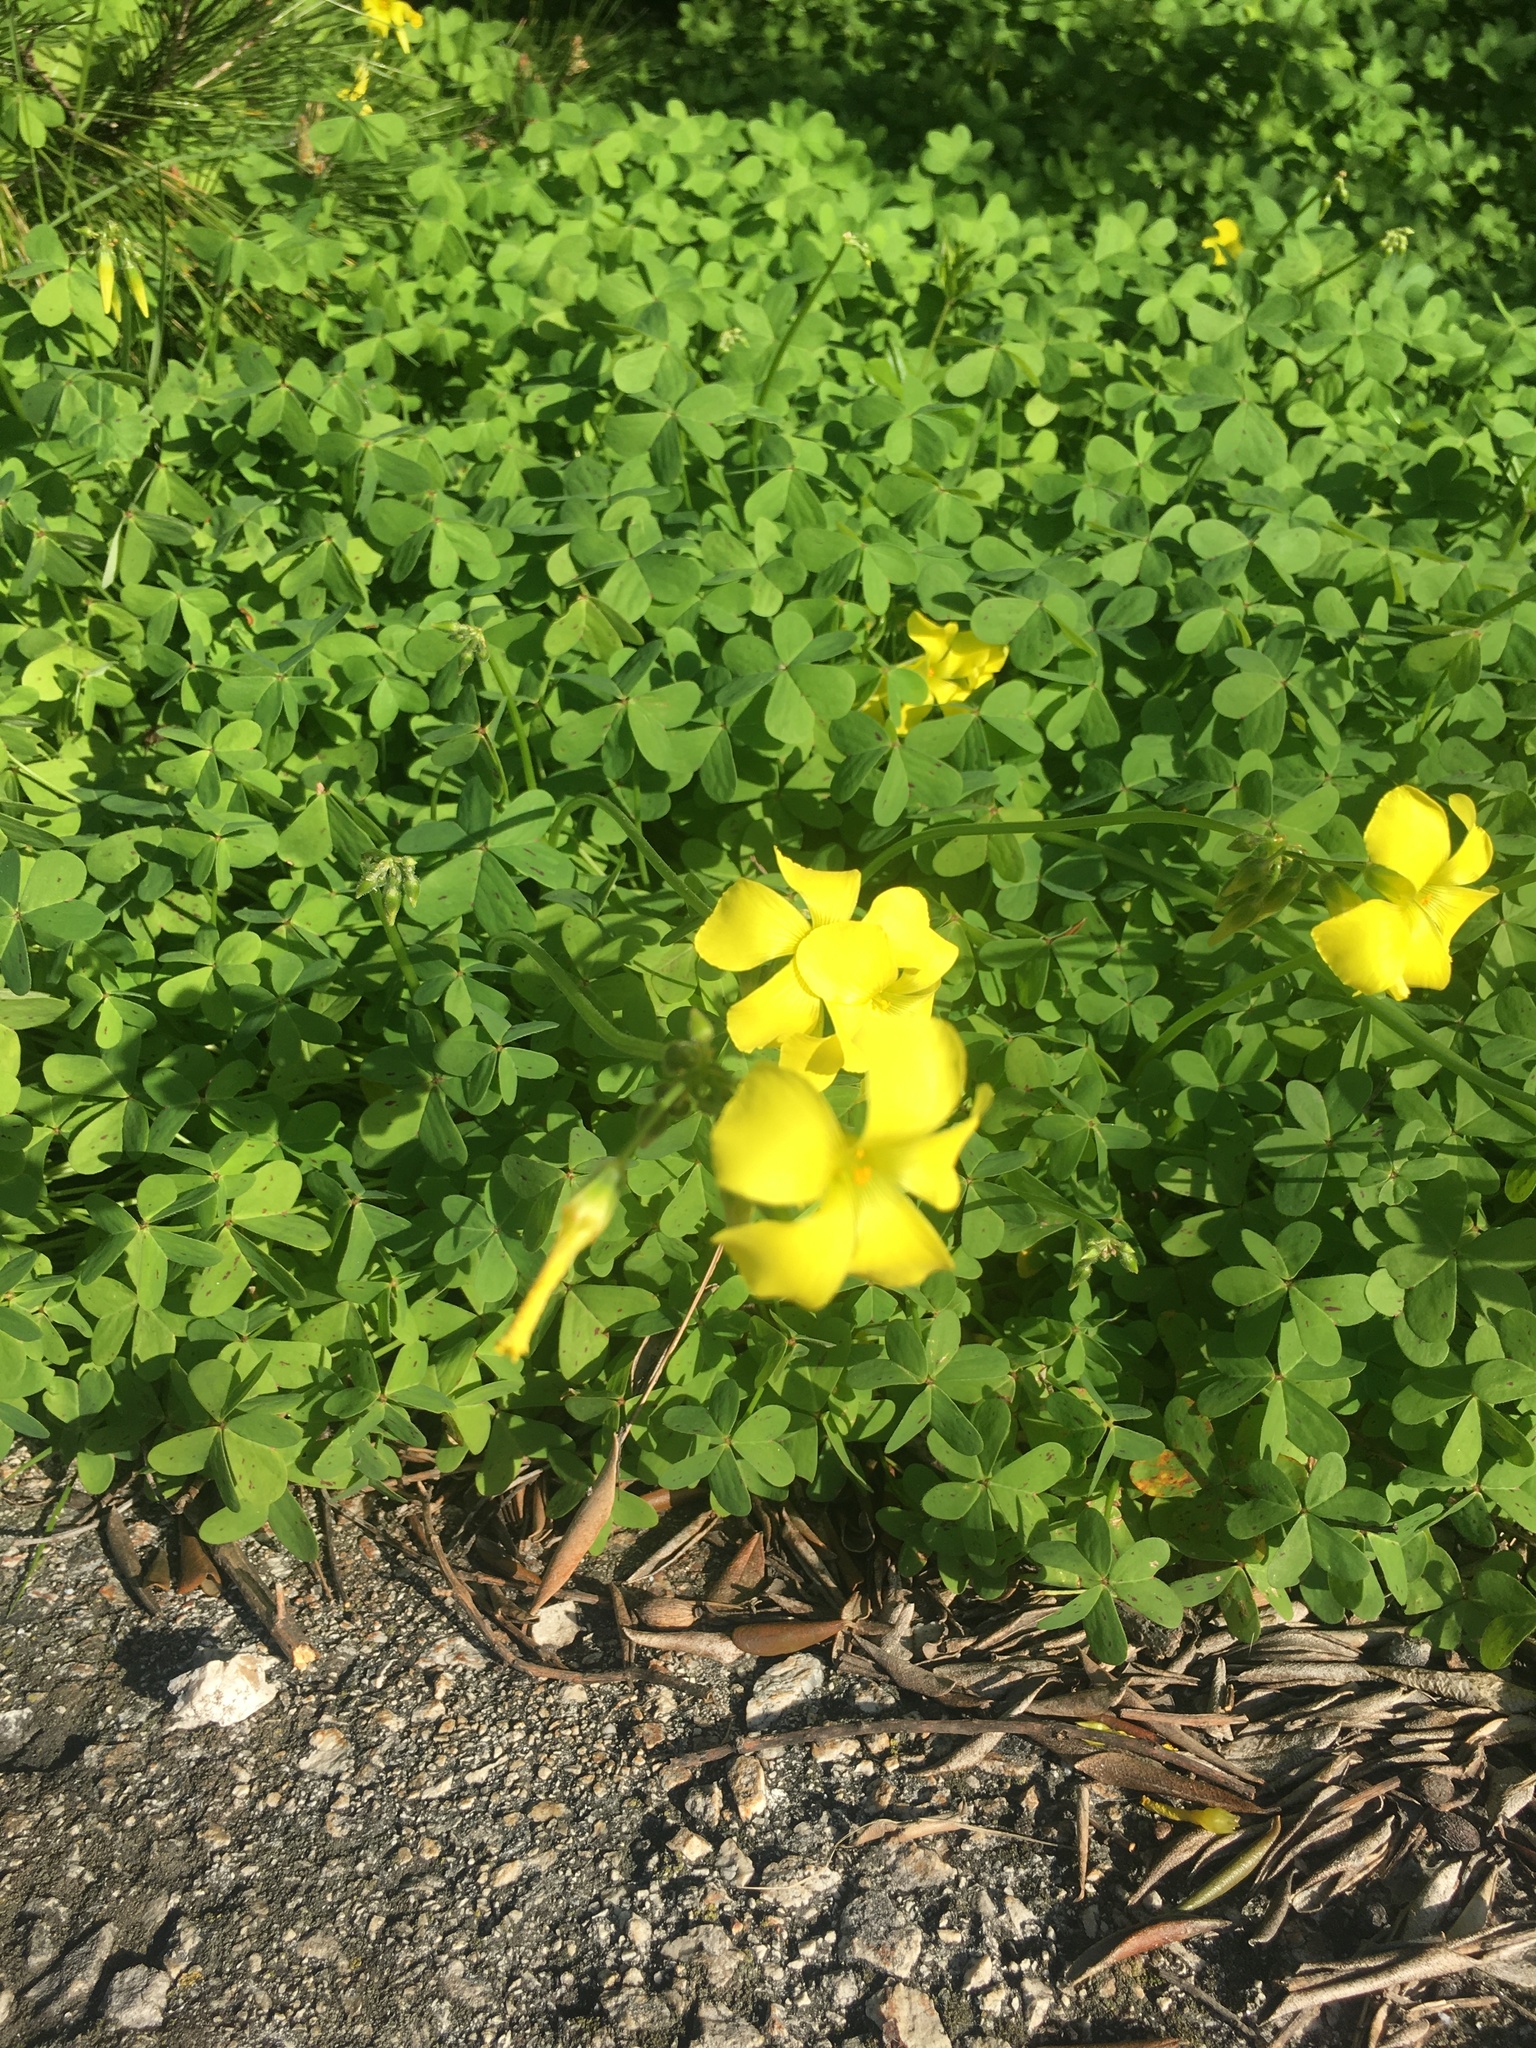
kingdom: Plantae
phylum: Tracheophyta
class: Magnoliopsida
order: Oxalidales
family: Oxalidaceae
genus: Oxalis
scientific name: Oxalis pes-caprae
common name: Bermuda-buttercup
